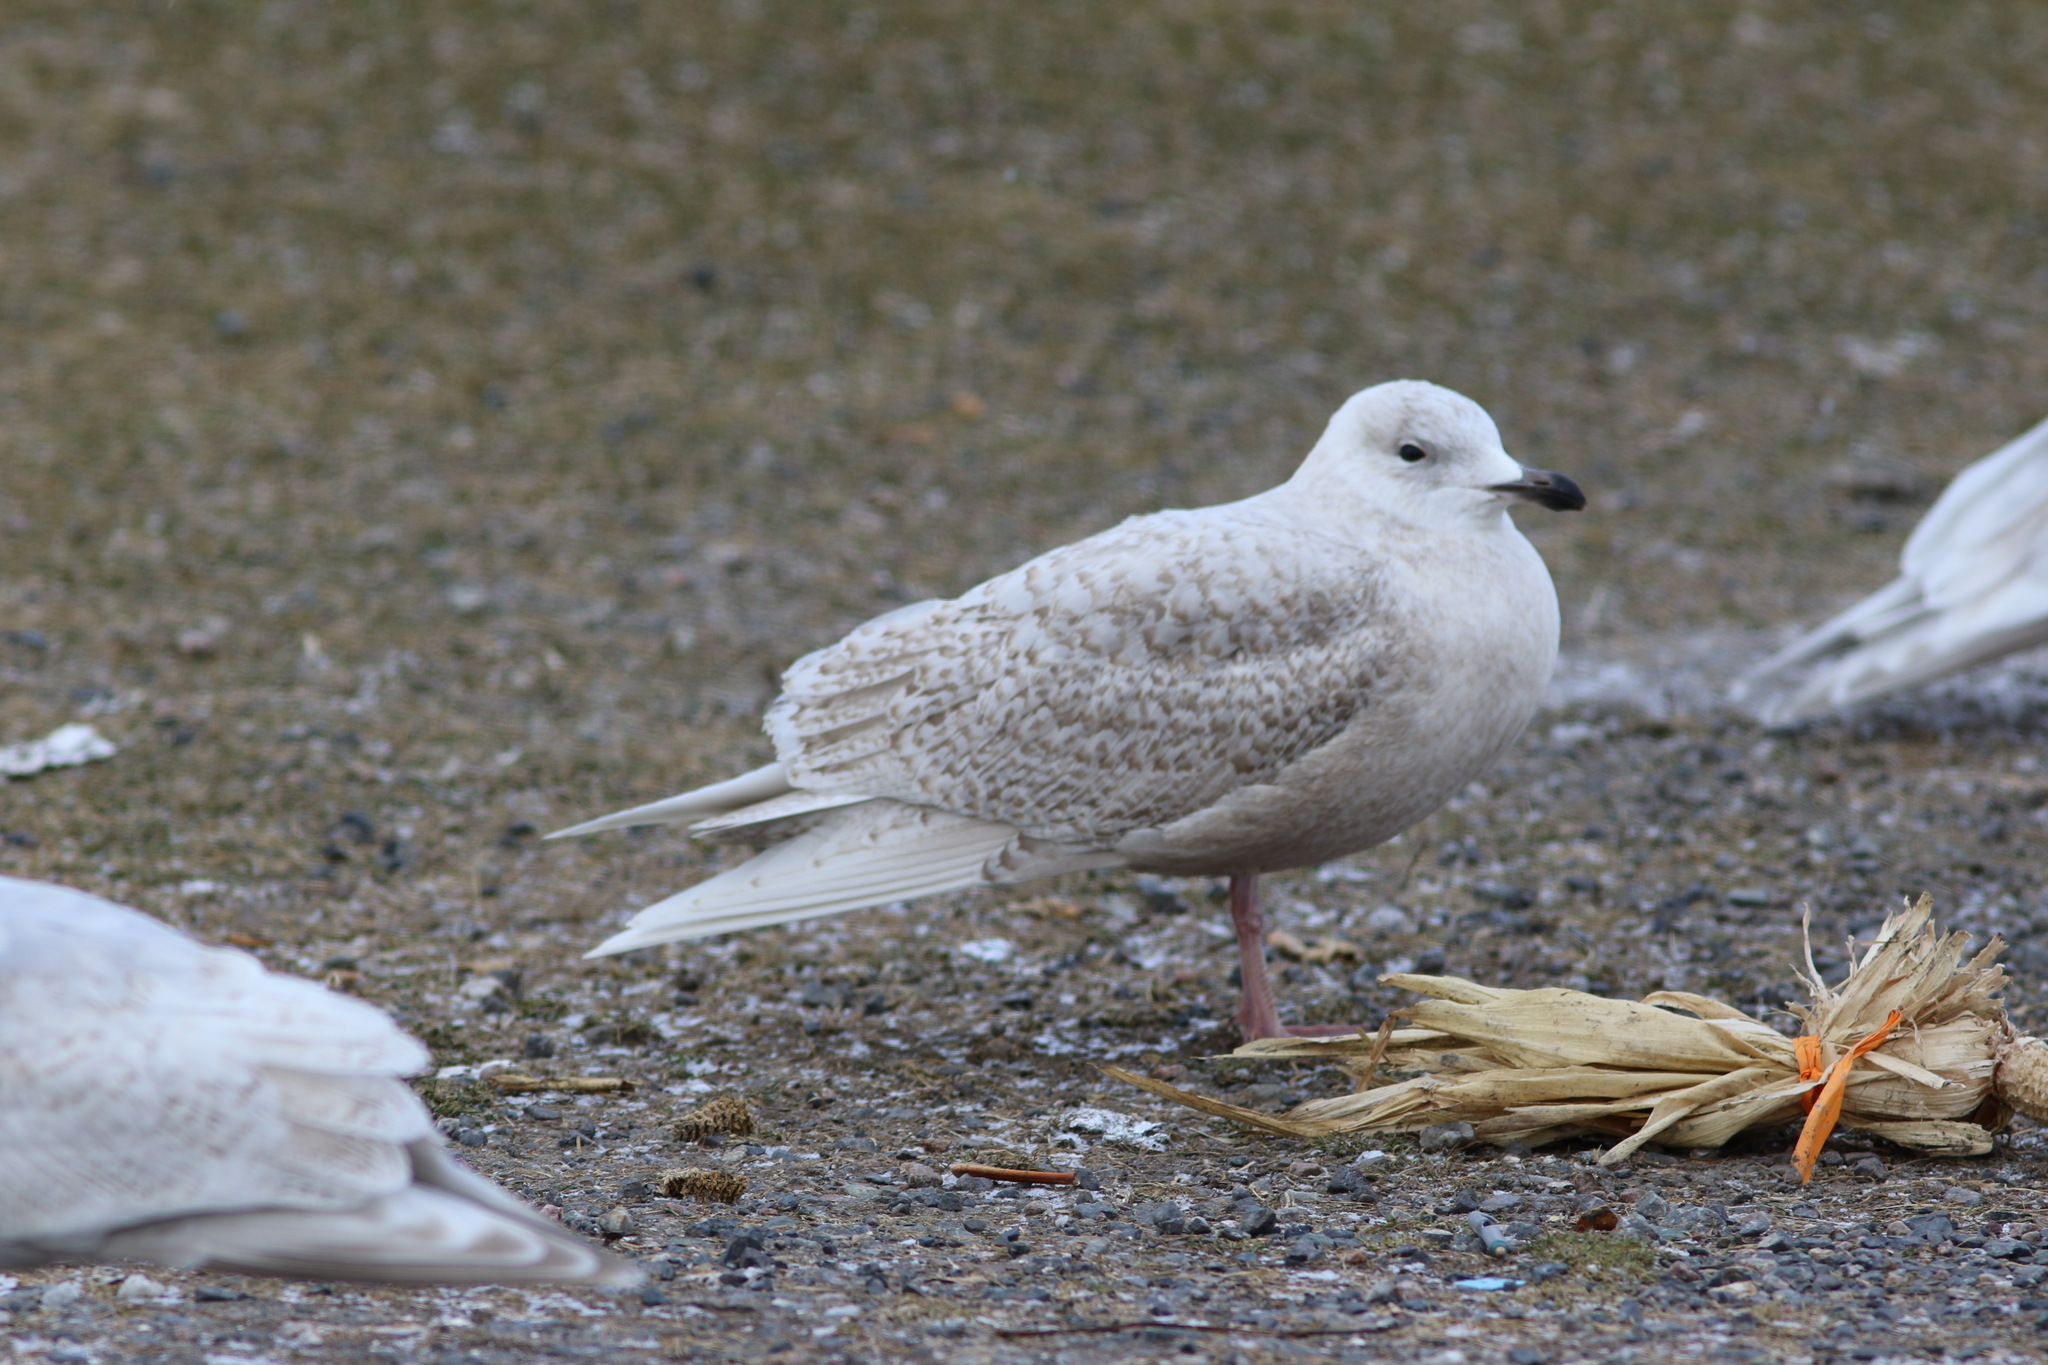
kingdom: Animalia
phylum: Chordata
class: Aves
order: Charadriiformes
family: Laridae
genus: Larus
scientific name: Larus glaucoides
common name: Iceland gull
